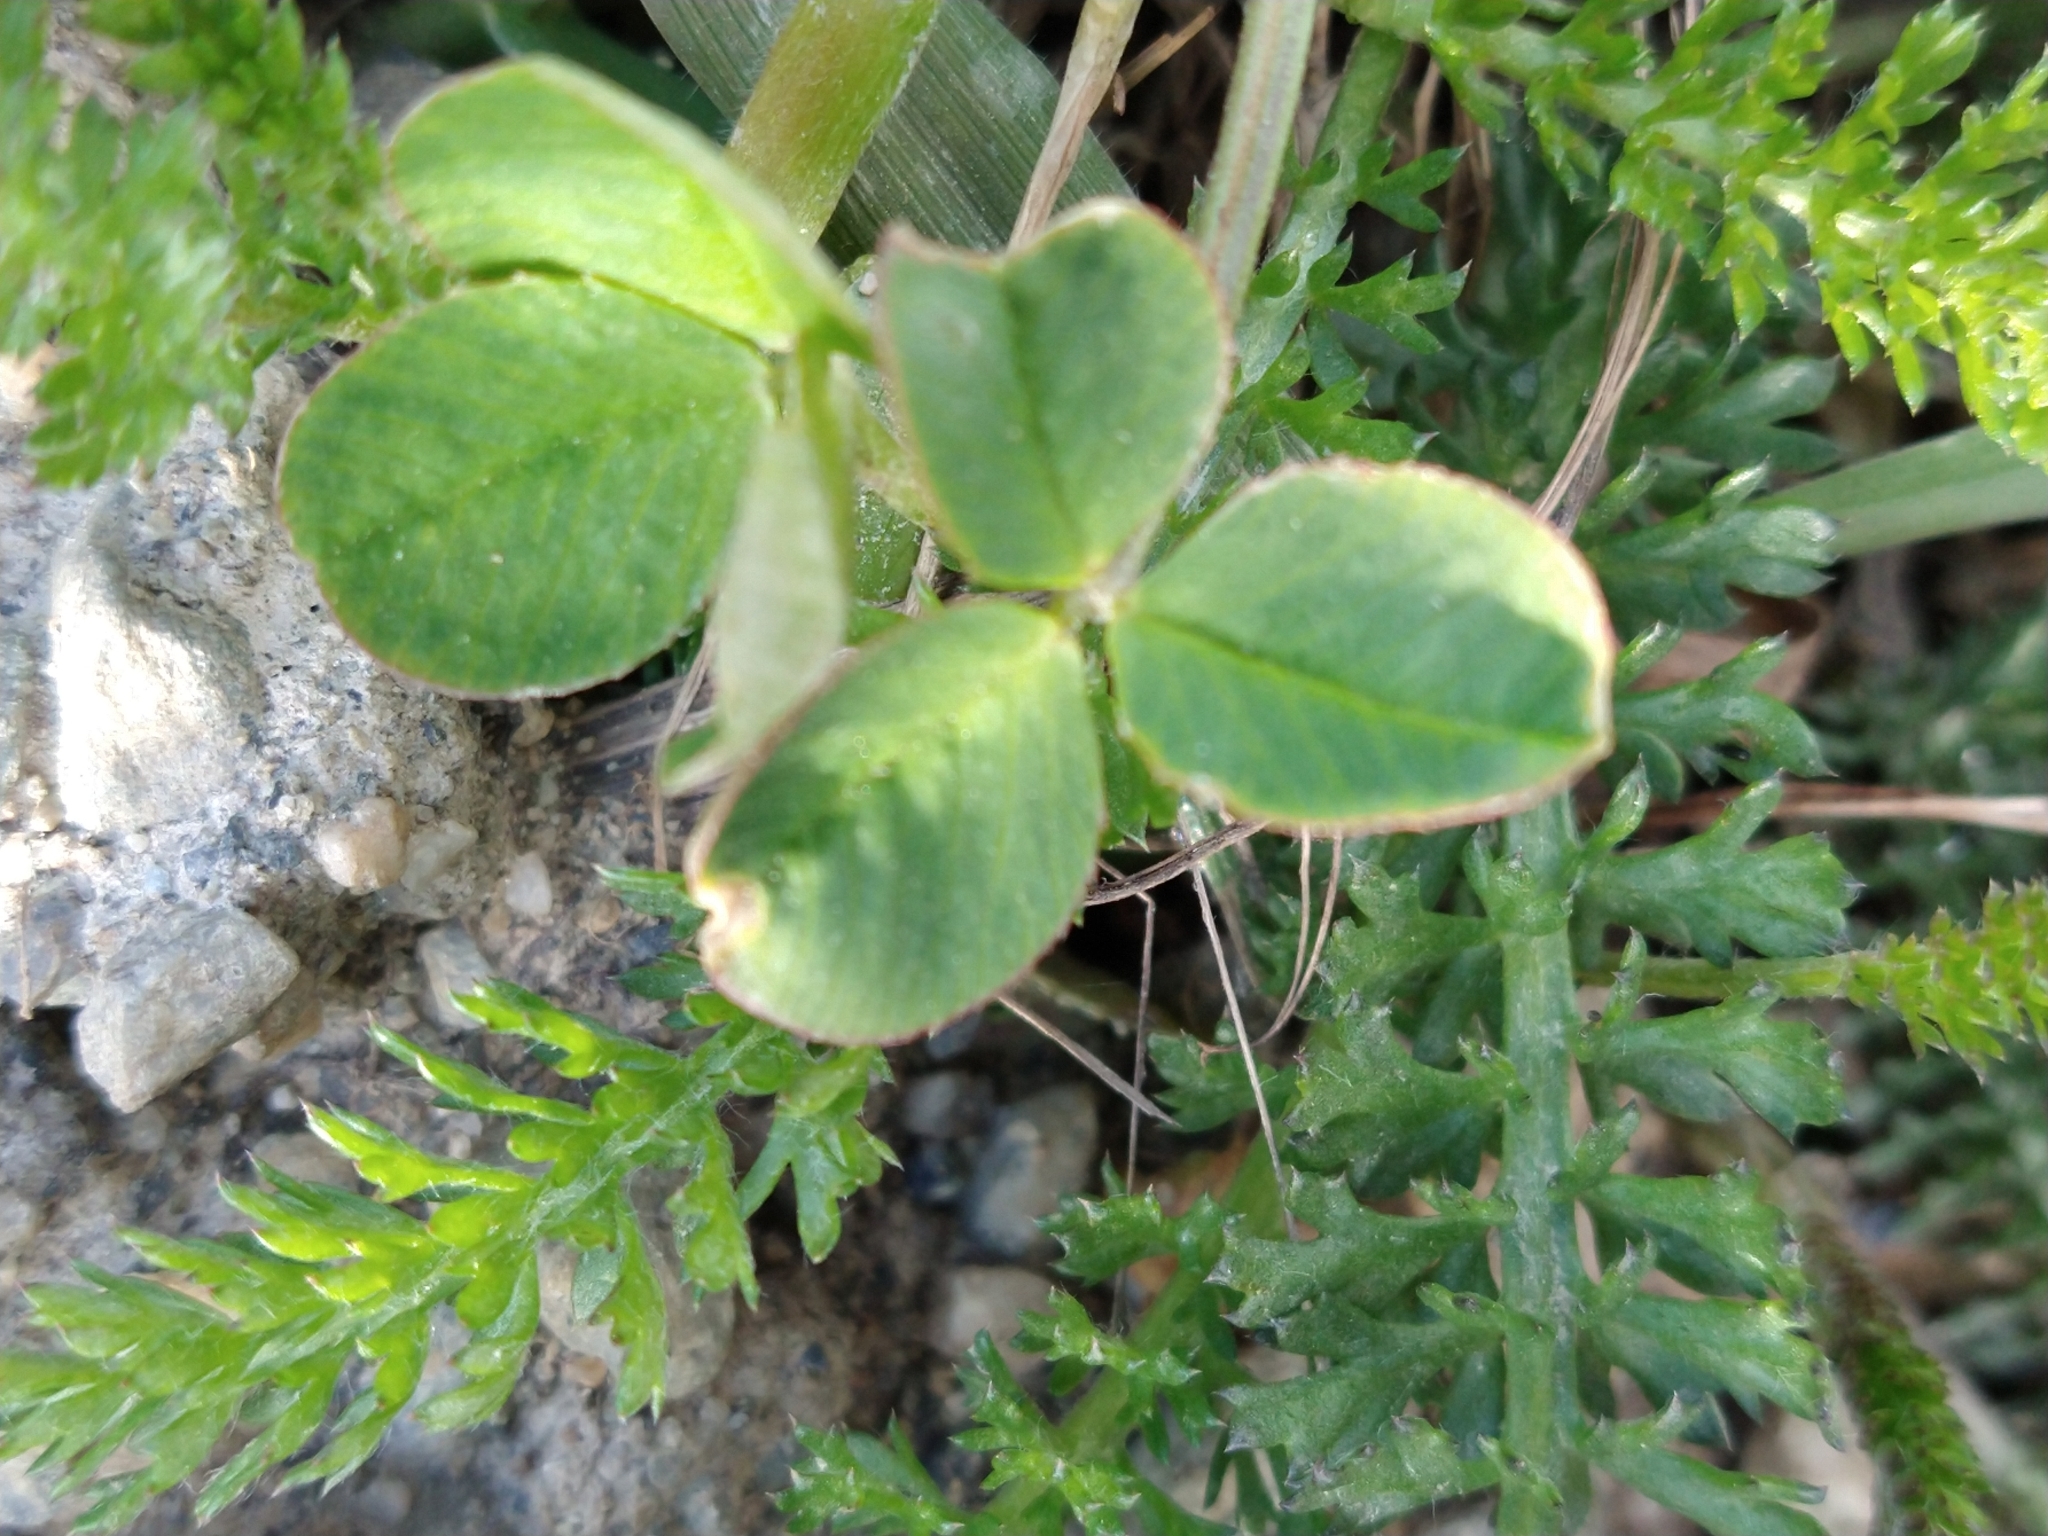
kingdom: Plantae
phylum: Tracheophyta
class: Magnoliopsida
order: Fabales
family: Fabaceae
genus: Trifolium
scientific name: Trifolium repens
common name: White clover
